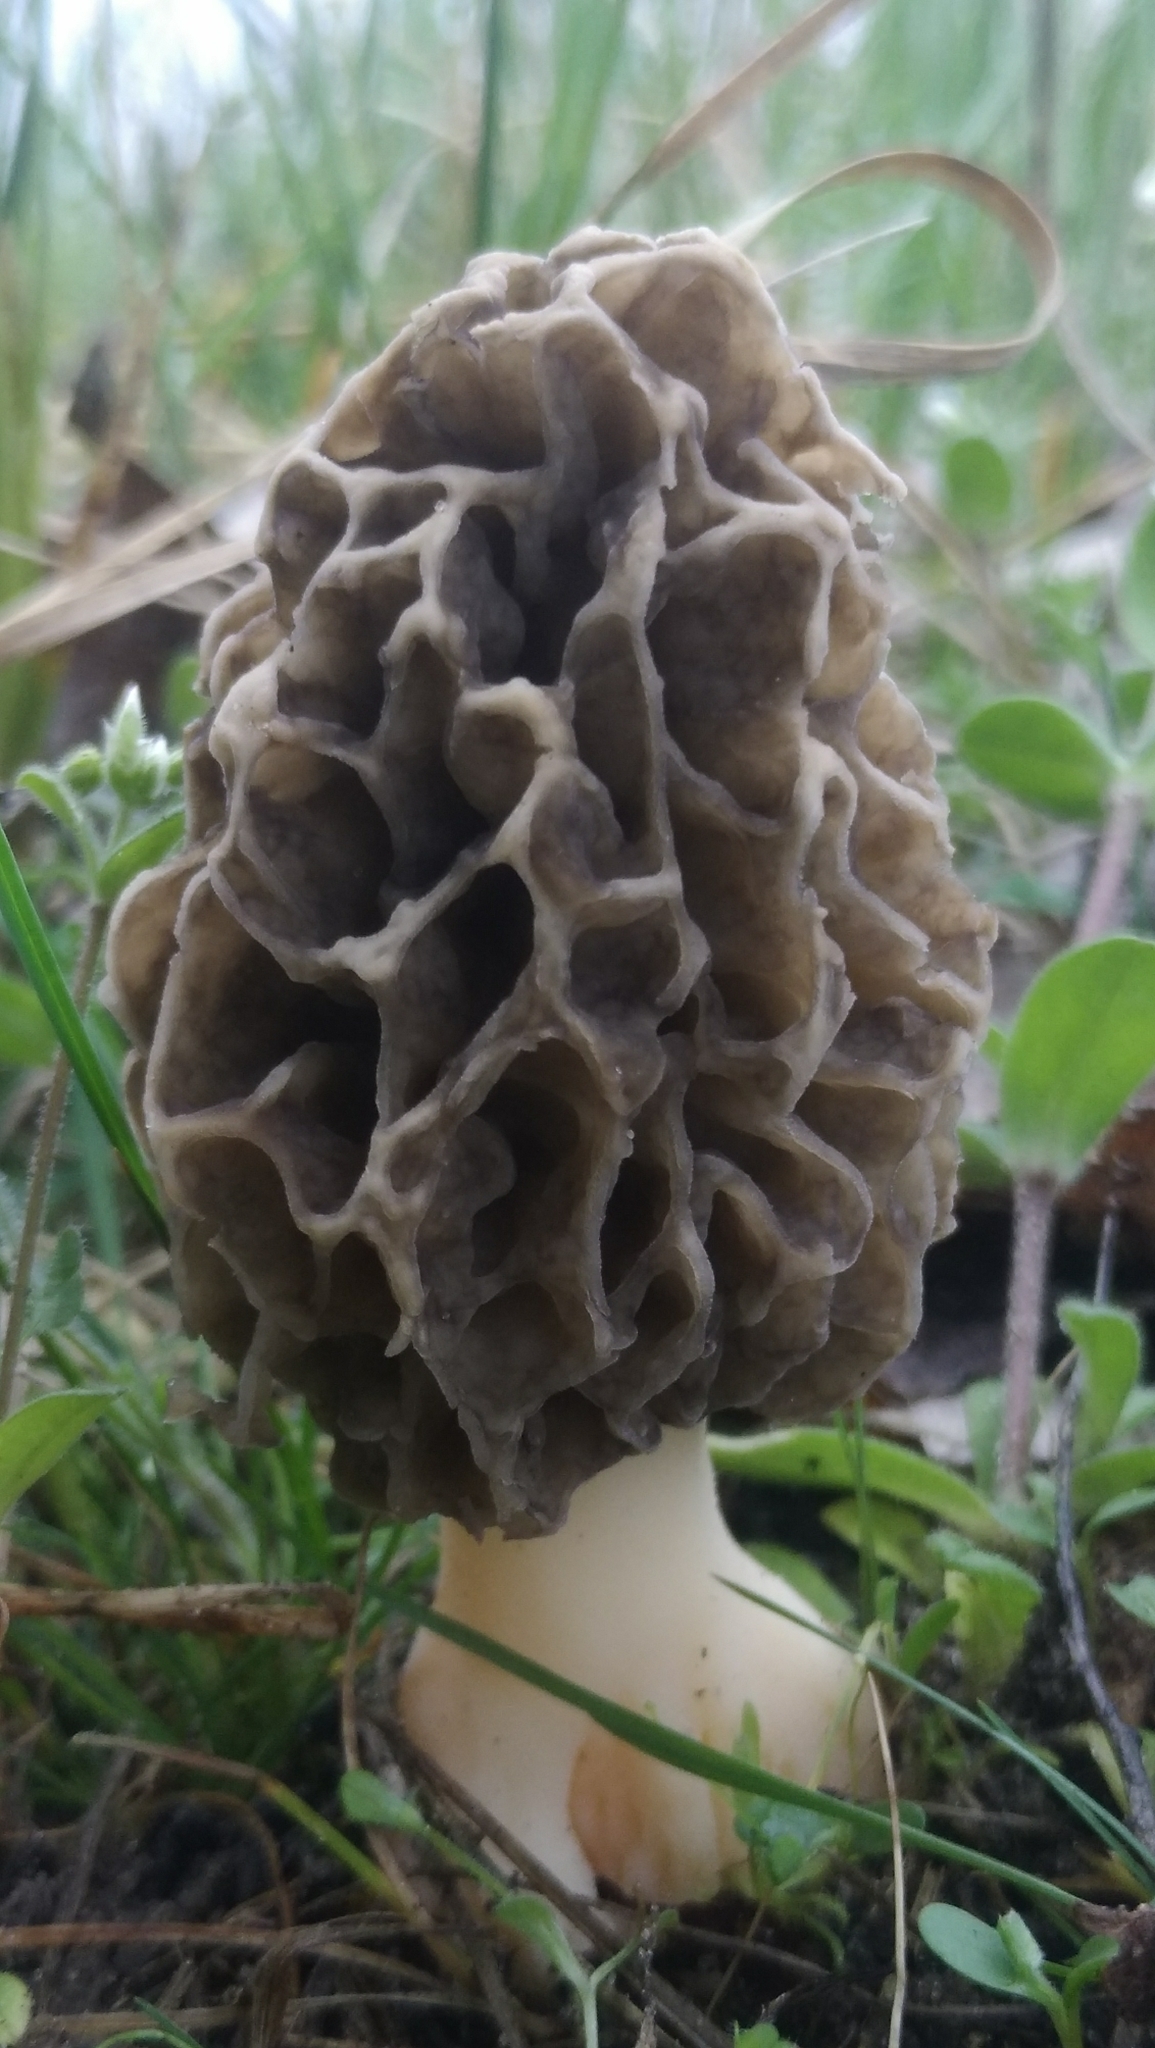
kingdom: Fungi
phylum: Ascomycota
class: Pezizomycetes
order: Pezizales
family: Morchellaceae
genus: Morchella
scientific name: Morchella esculenta
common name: Morel
